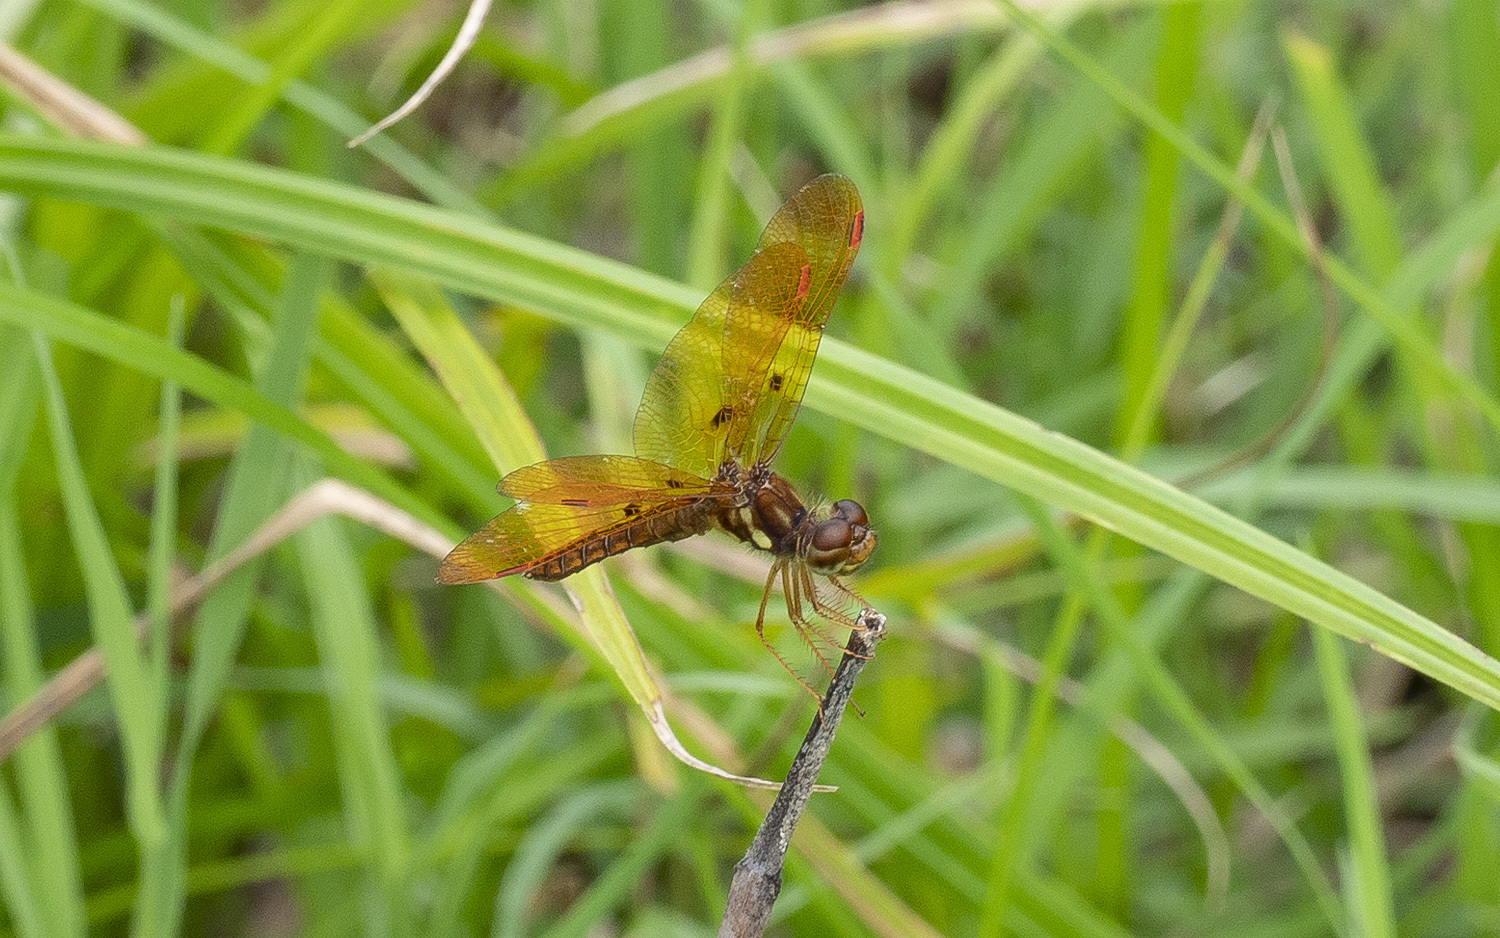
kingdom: Animalia
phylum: Arthropoda
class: Insecta
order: Odonata
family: Libellulidae
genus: Perithemis
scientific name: Perithemis tenera
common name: Eastern amberwing
